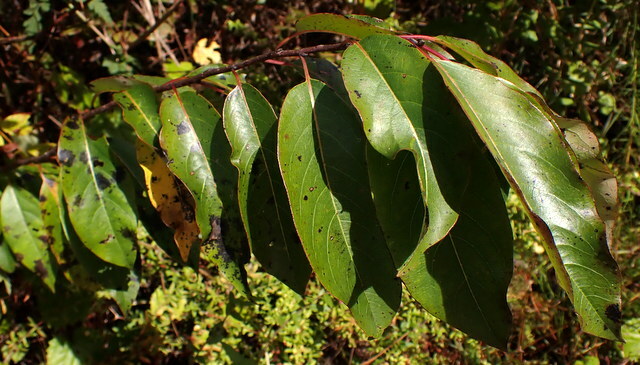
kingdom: Plantae
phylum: Tracheophyta
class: Magnoliopsida
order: Ericales
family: Ebenaceae
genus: Diospyros
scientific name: Diospyros virginiana
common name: Persimmon
